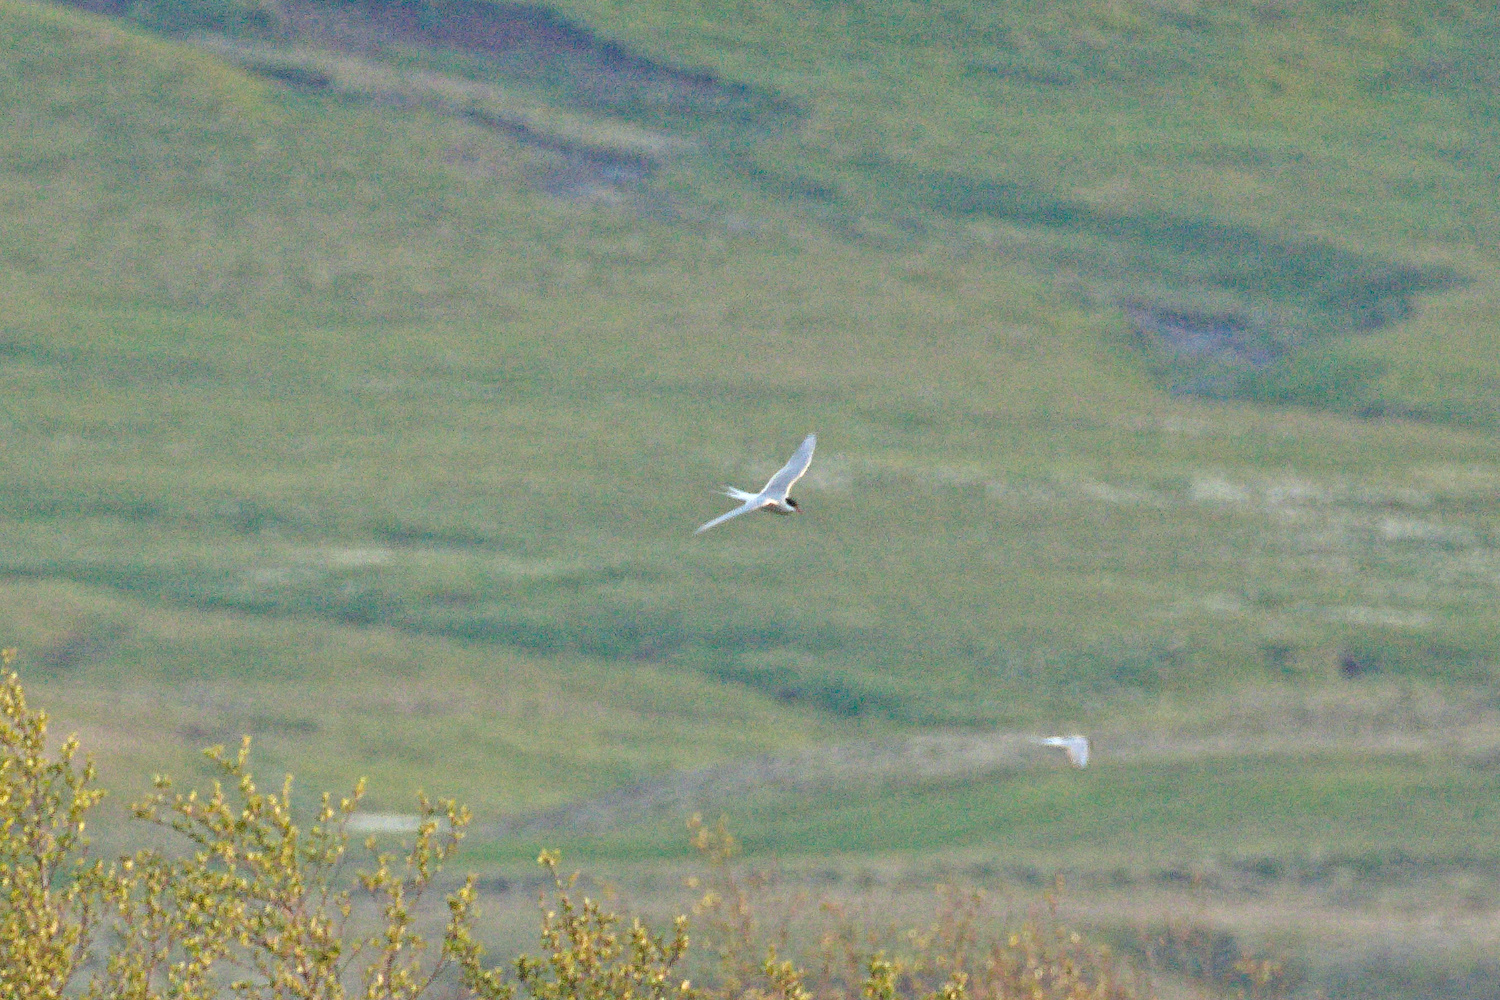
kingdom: Animalia
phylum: Chordata
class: Aves
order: Charadriiformes
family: Laridae
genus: Sterna
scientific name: Sterna paradisaea
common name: Arctic tern
